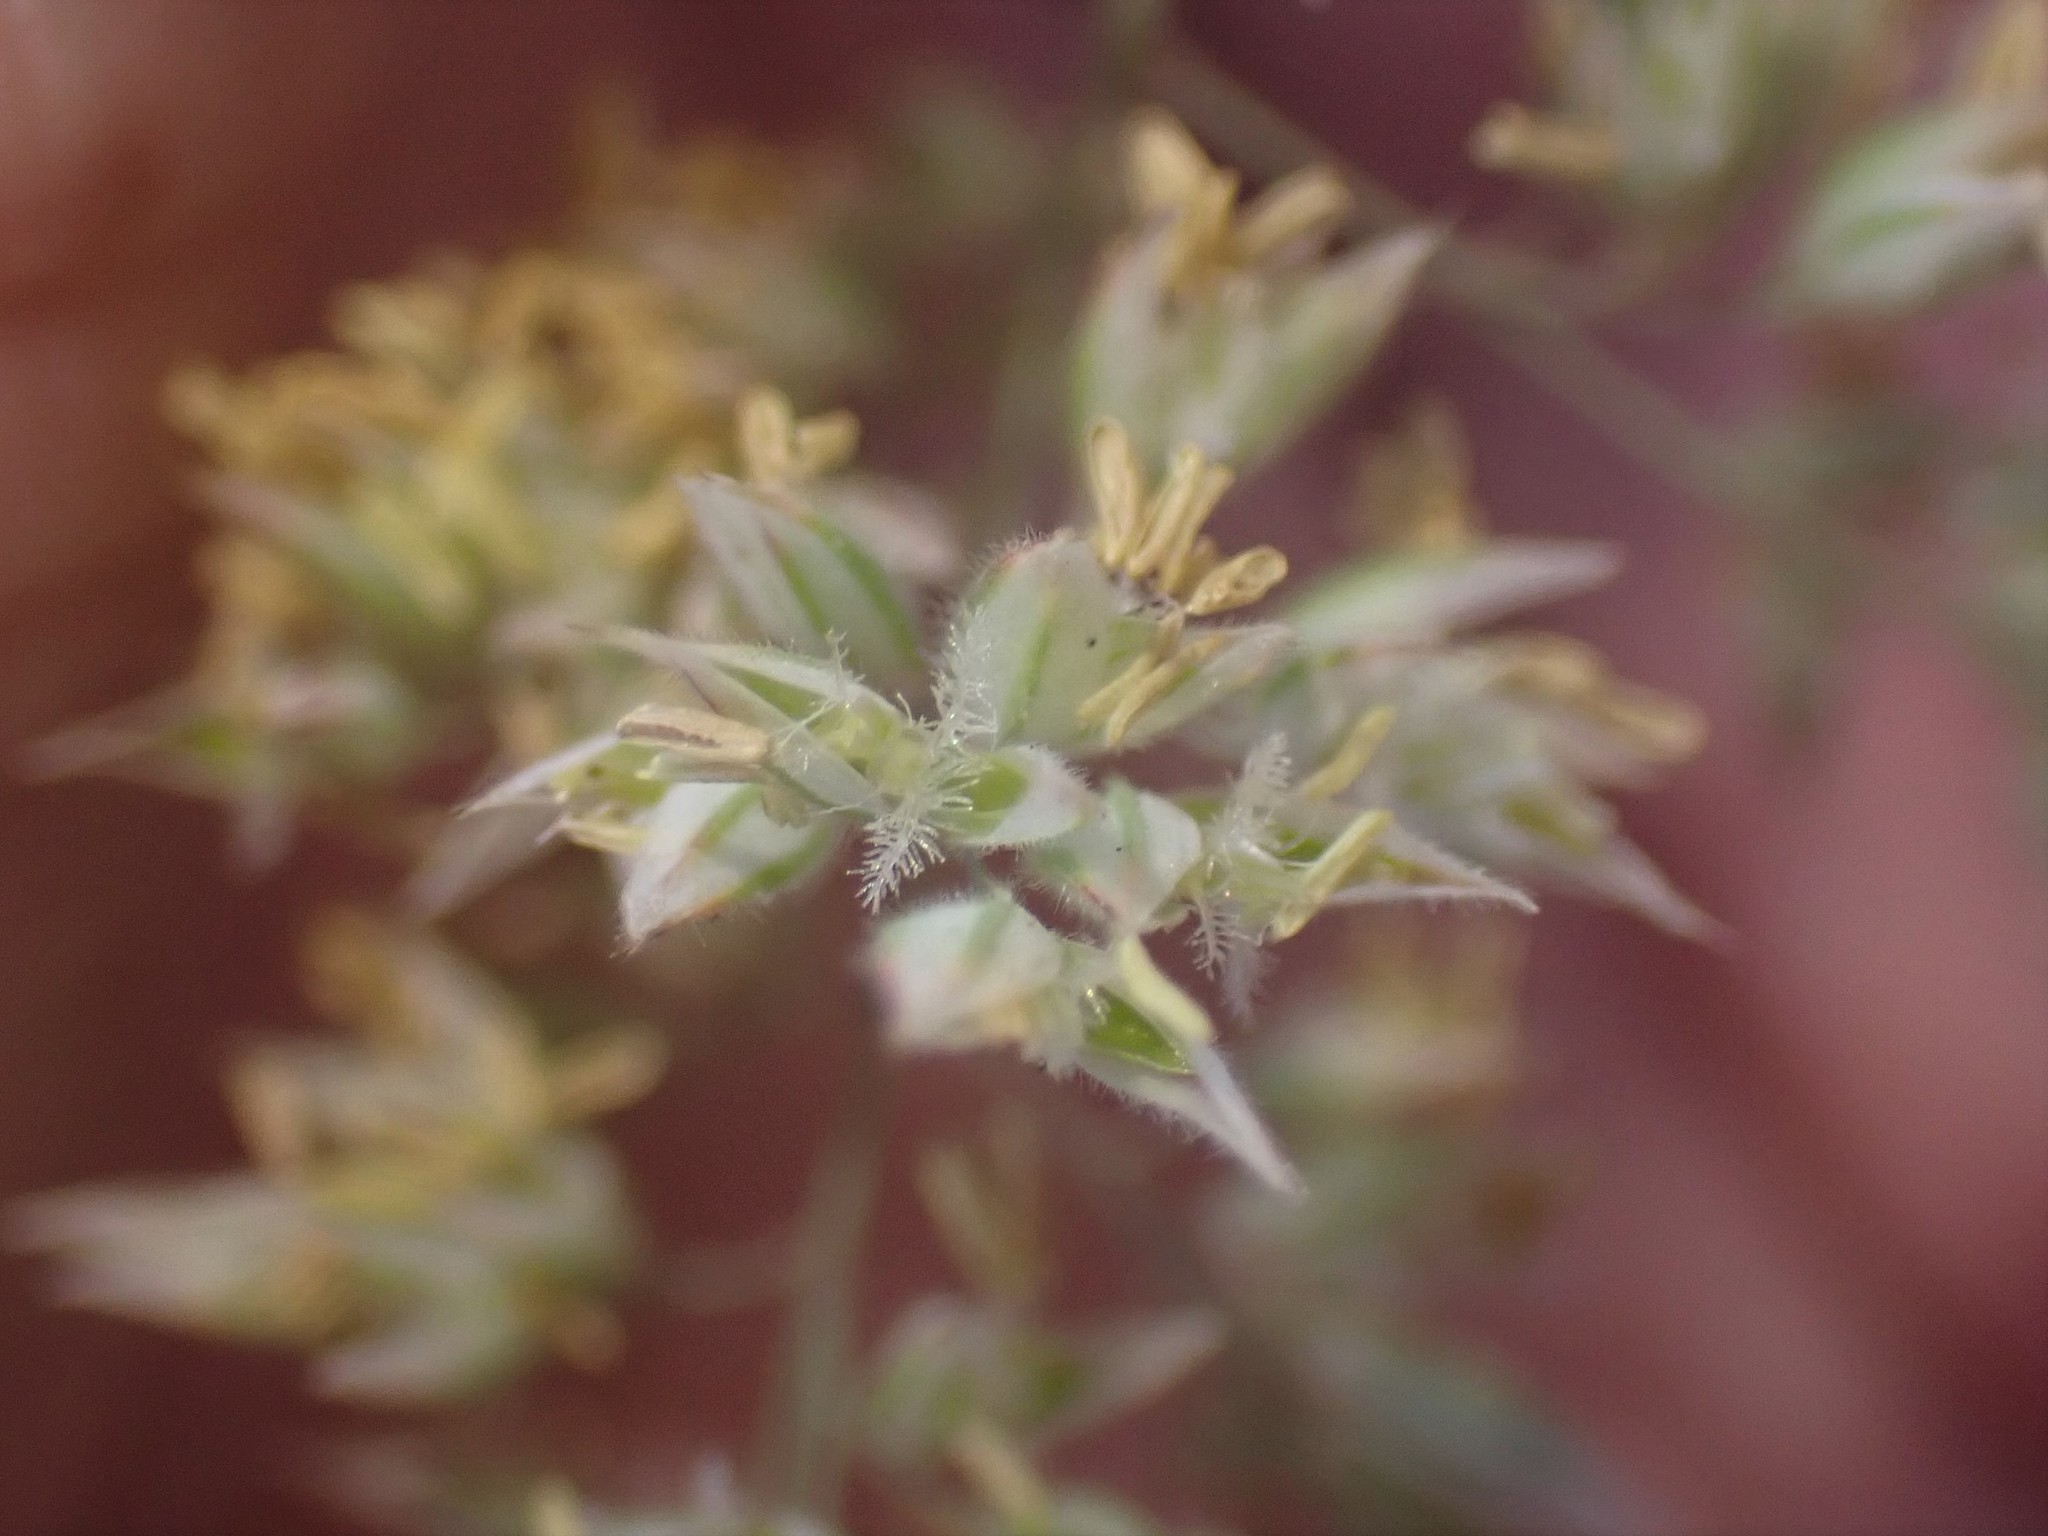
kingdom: Plantae
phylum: Tracheophyta
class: Liliopsida
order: Poales
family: Poaceae
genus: Holcus
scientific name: Holcus lanatus
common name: Yorkshire-fog
